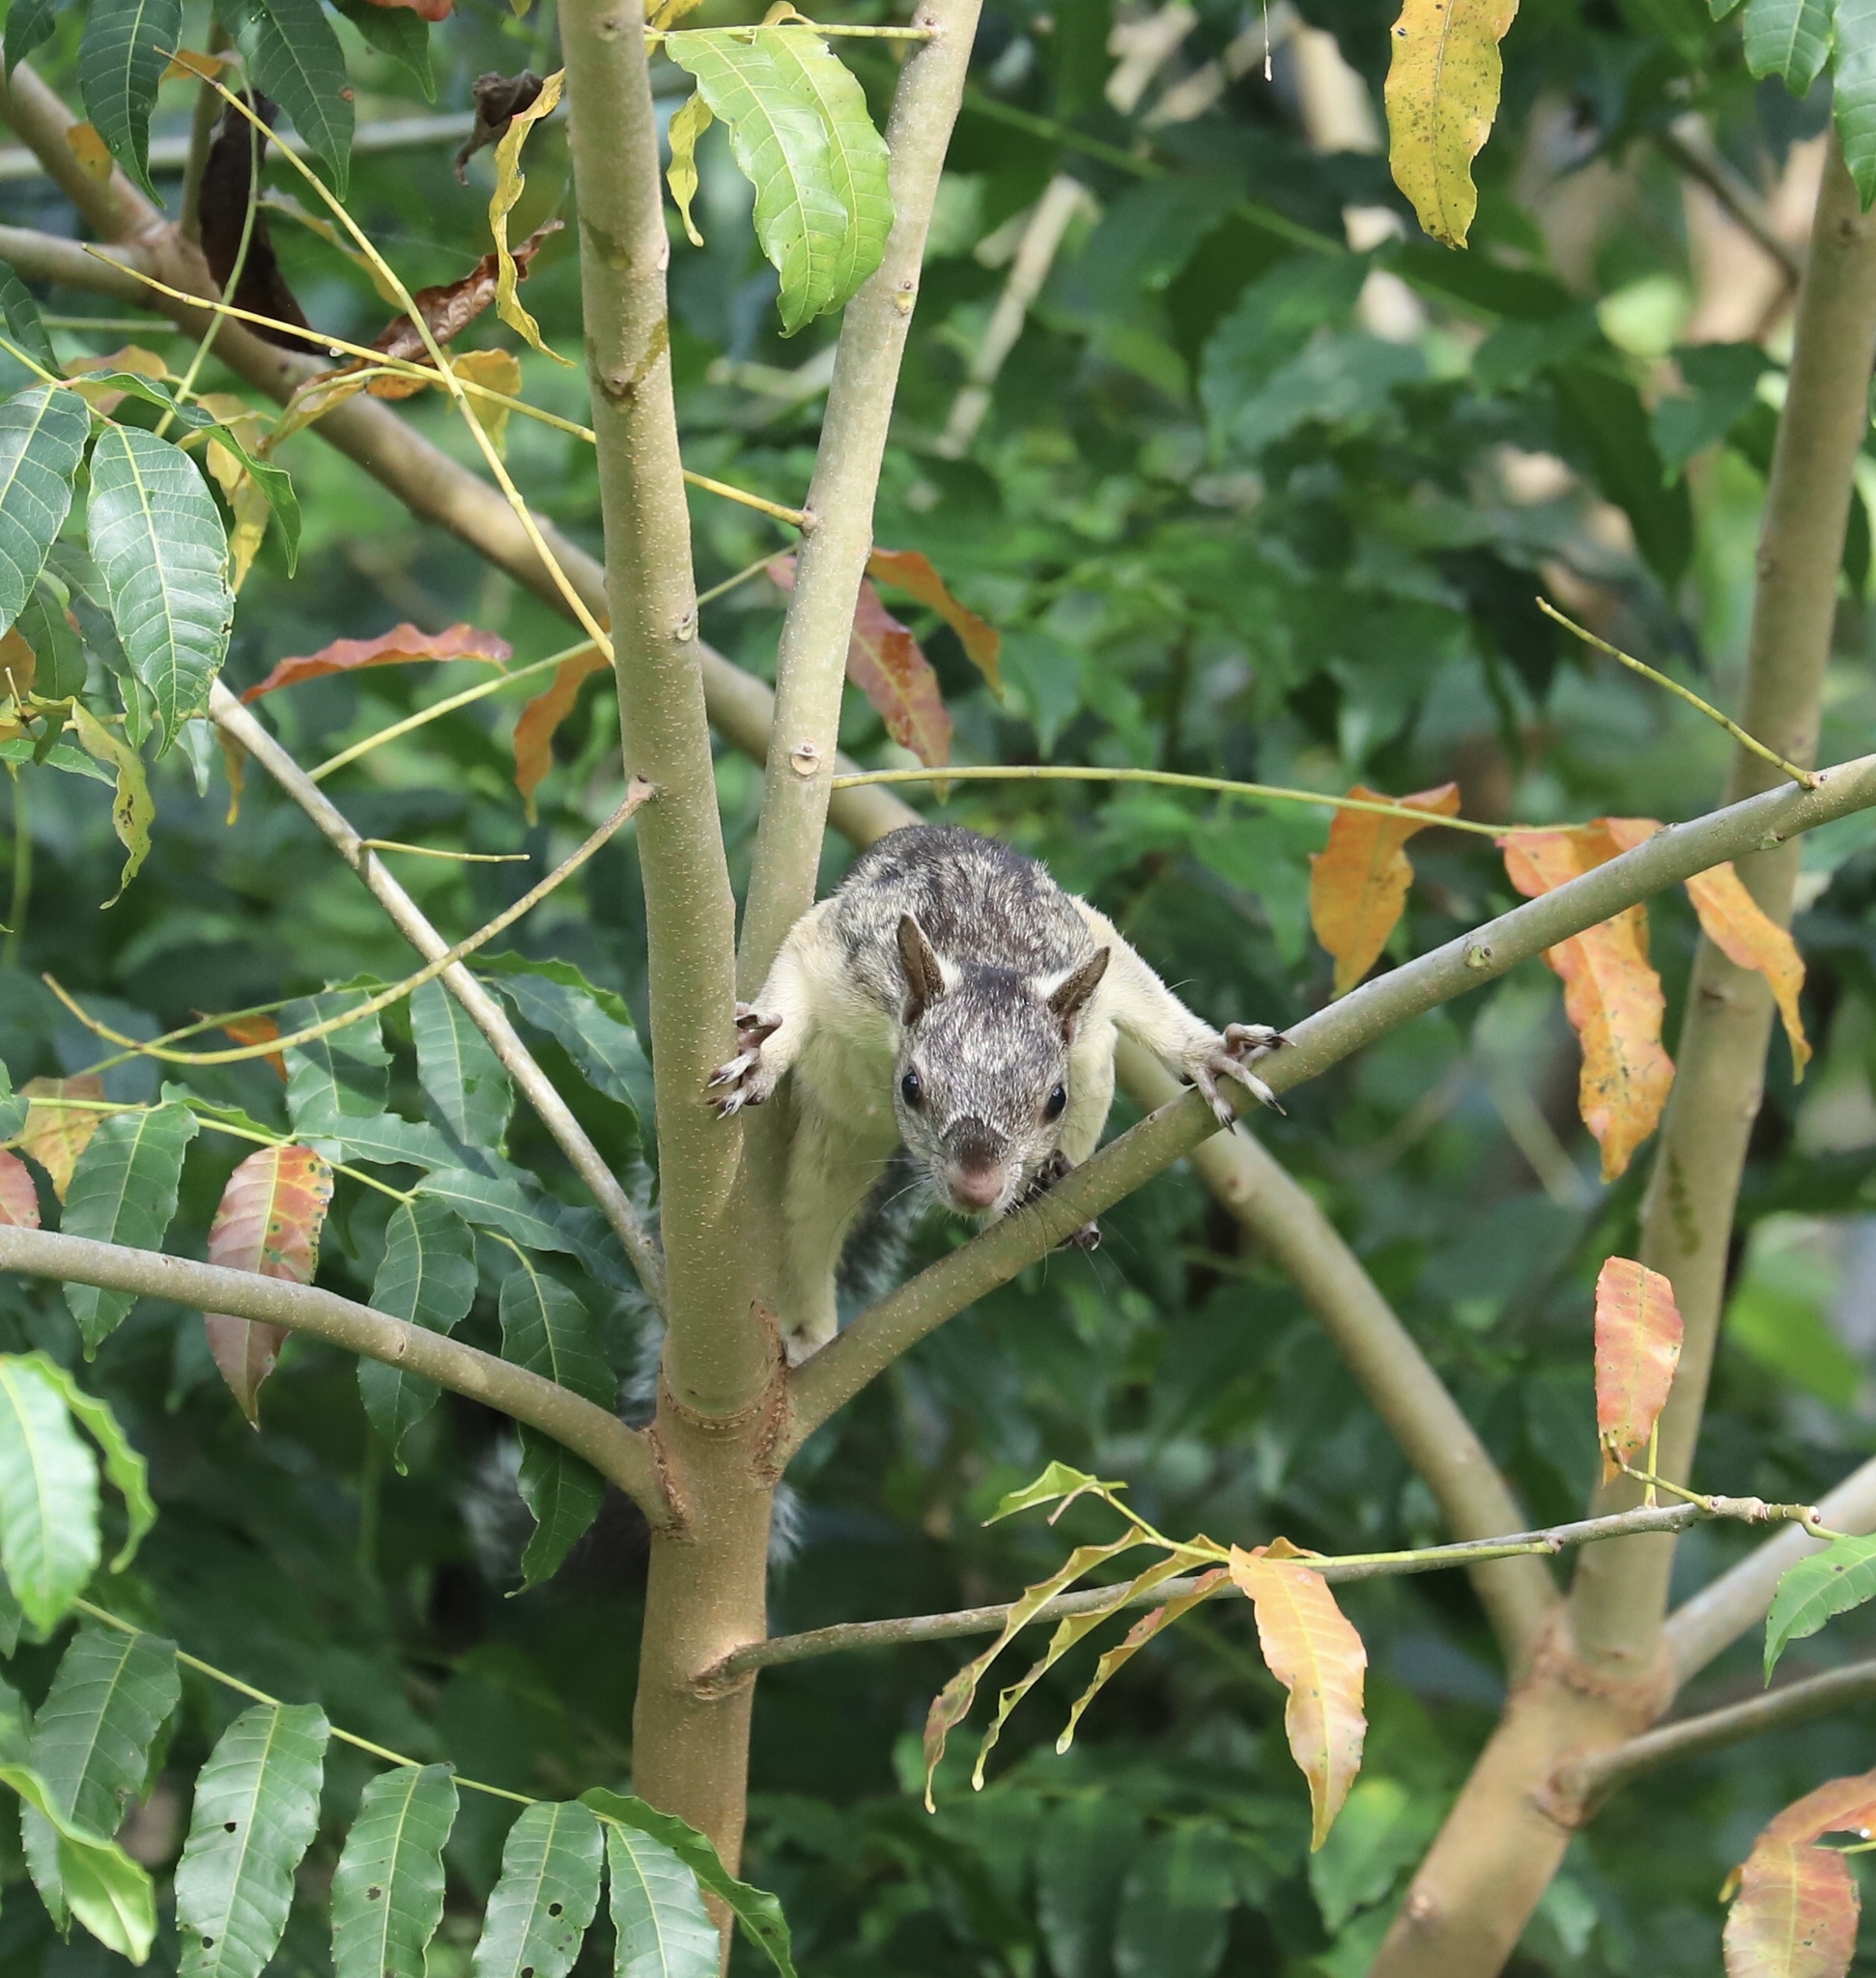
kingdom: Animalia
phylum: Chordata
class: Mammalia
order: Rodentia
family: Sciuridae
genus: Sciurus
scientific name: Sciurus variegatoides
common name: Variegated squirrel
